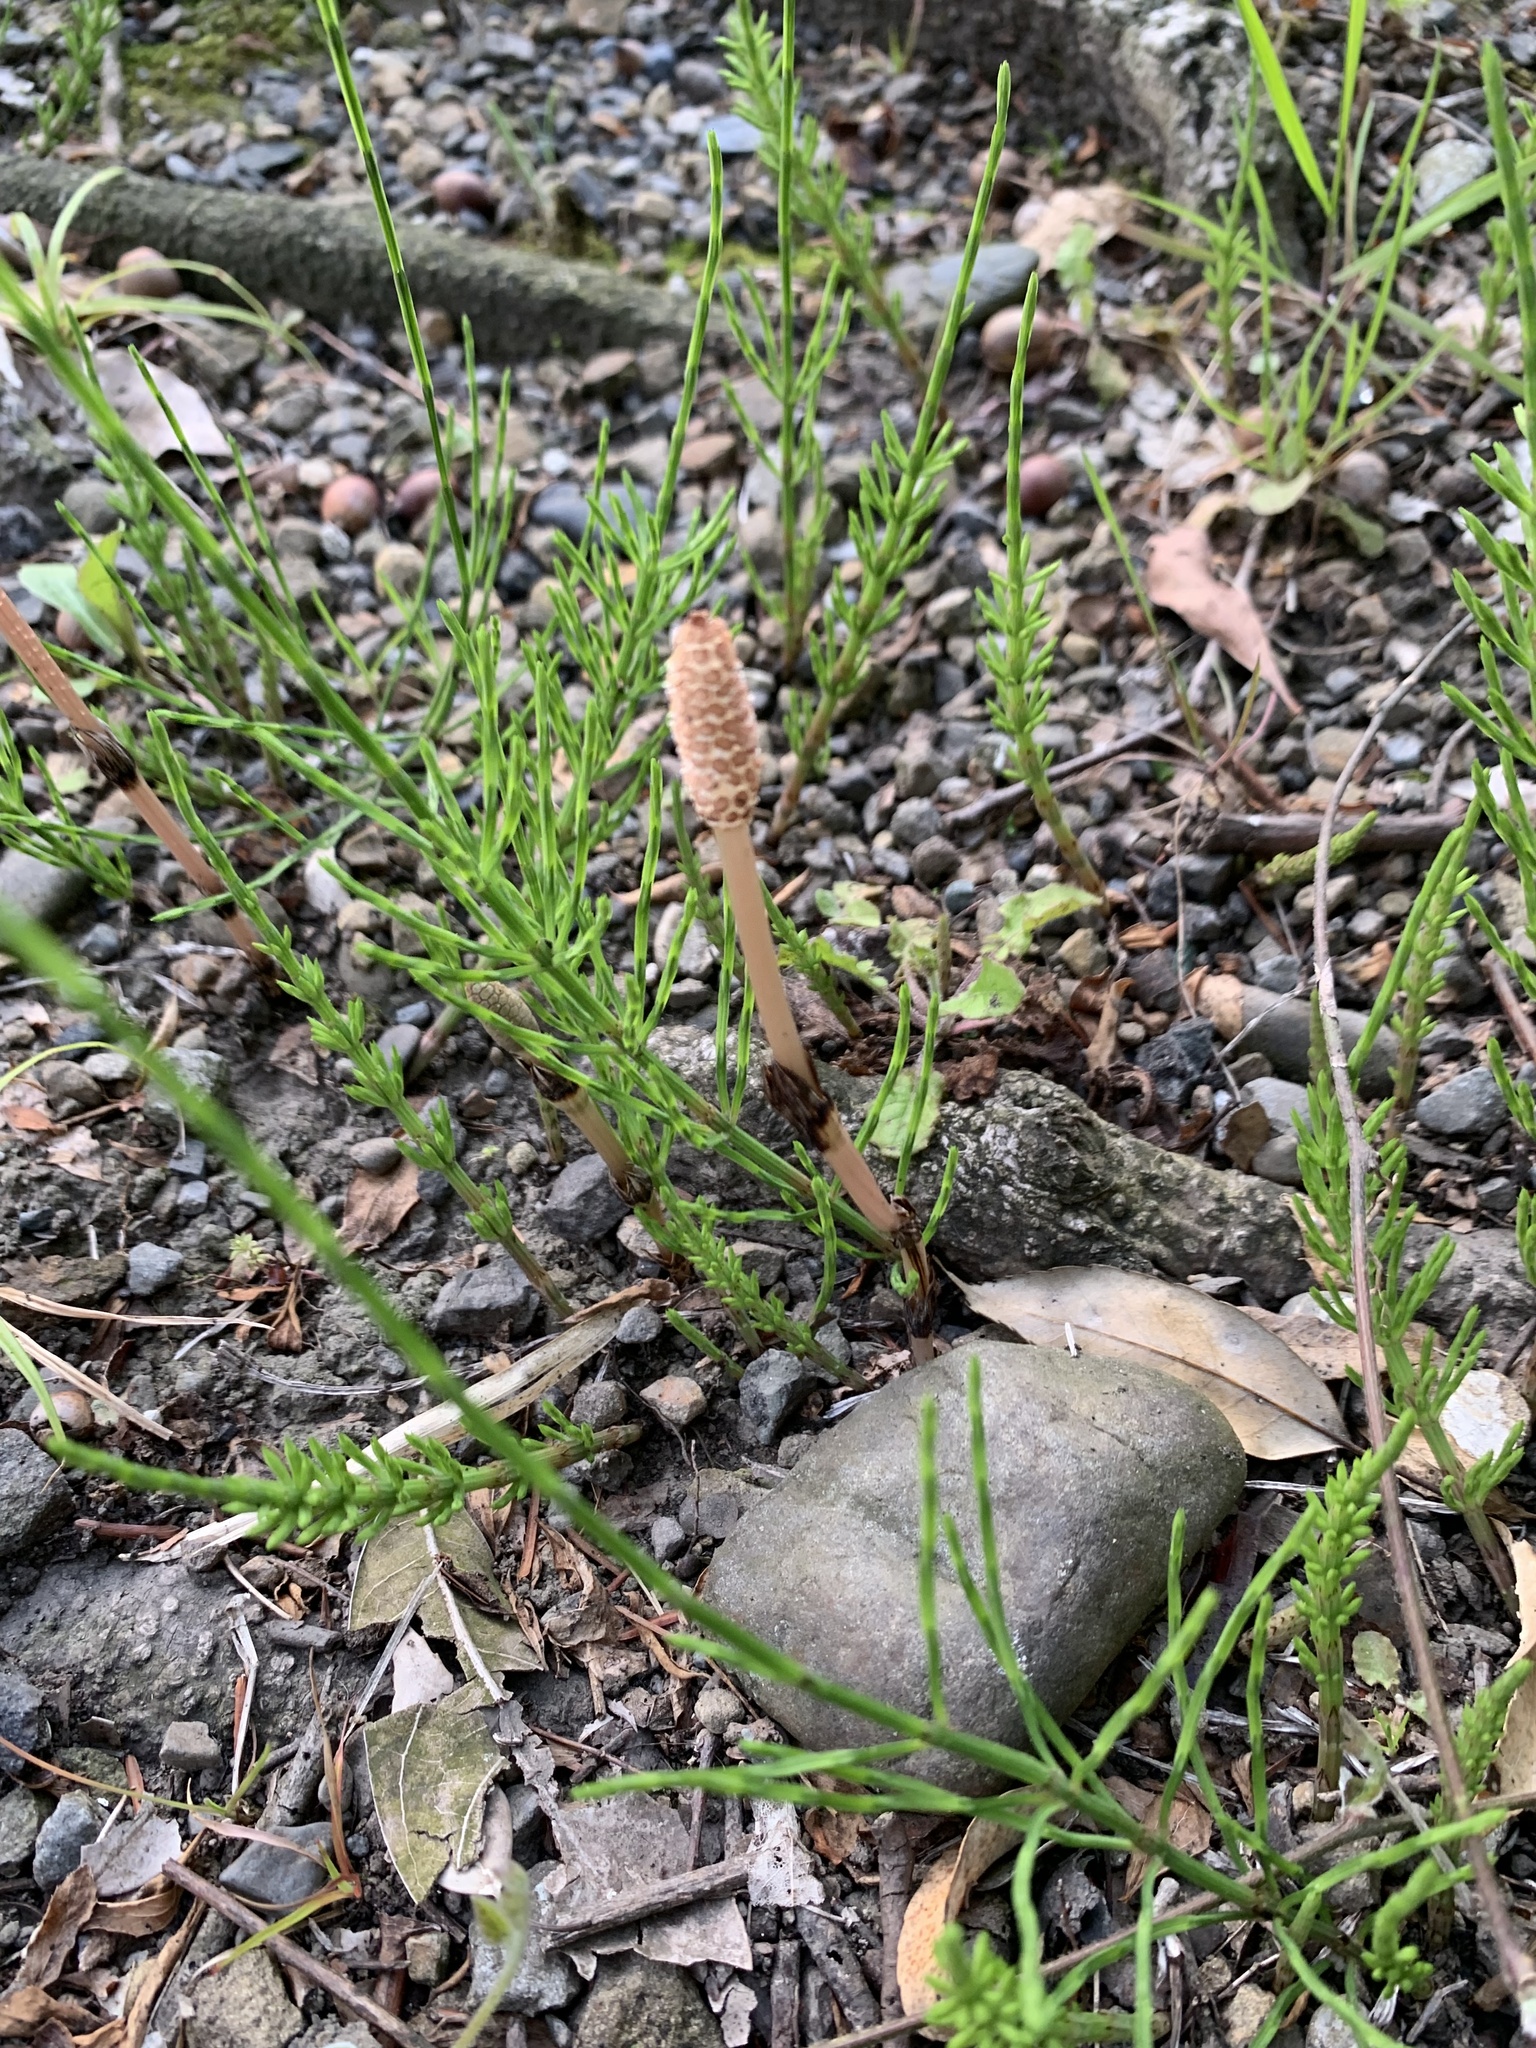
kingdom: Plantae
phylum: Tracheophyta
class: Polypodiopsida
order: Equisetales
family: Equisetaceae
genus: Equisetum
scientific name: Equisetum arvense
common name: Field horsetail
